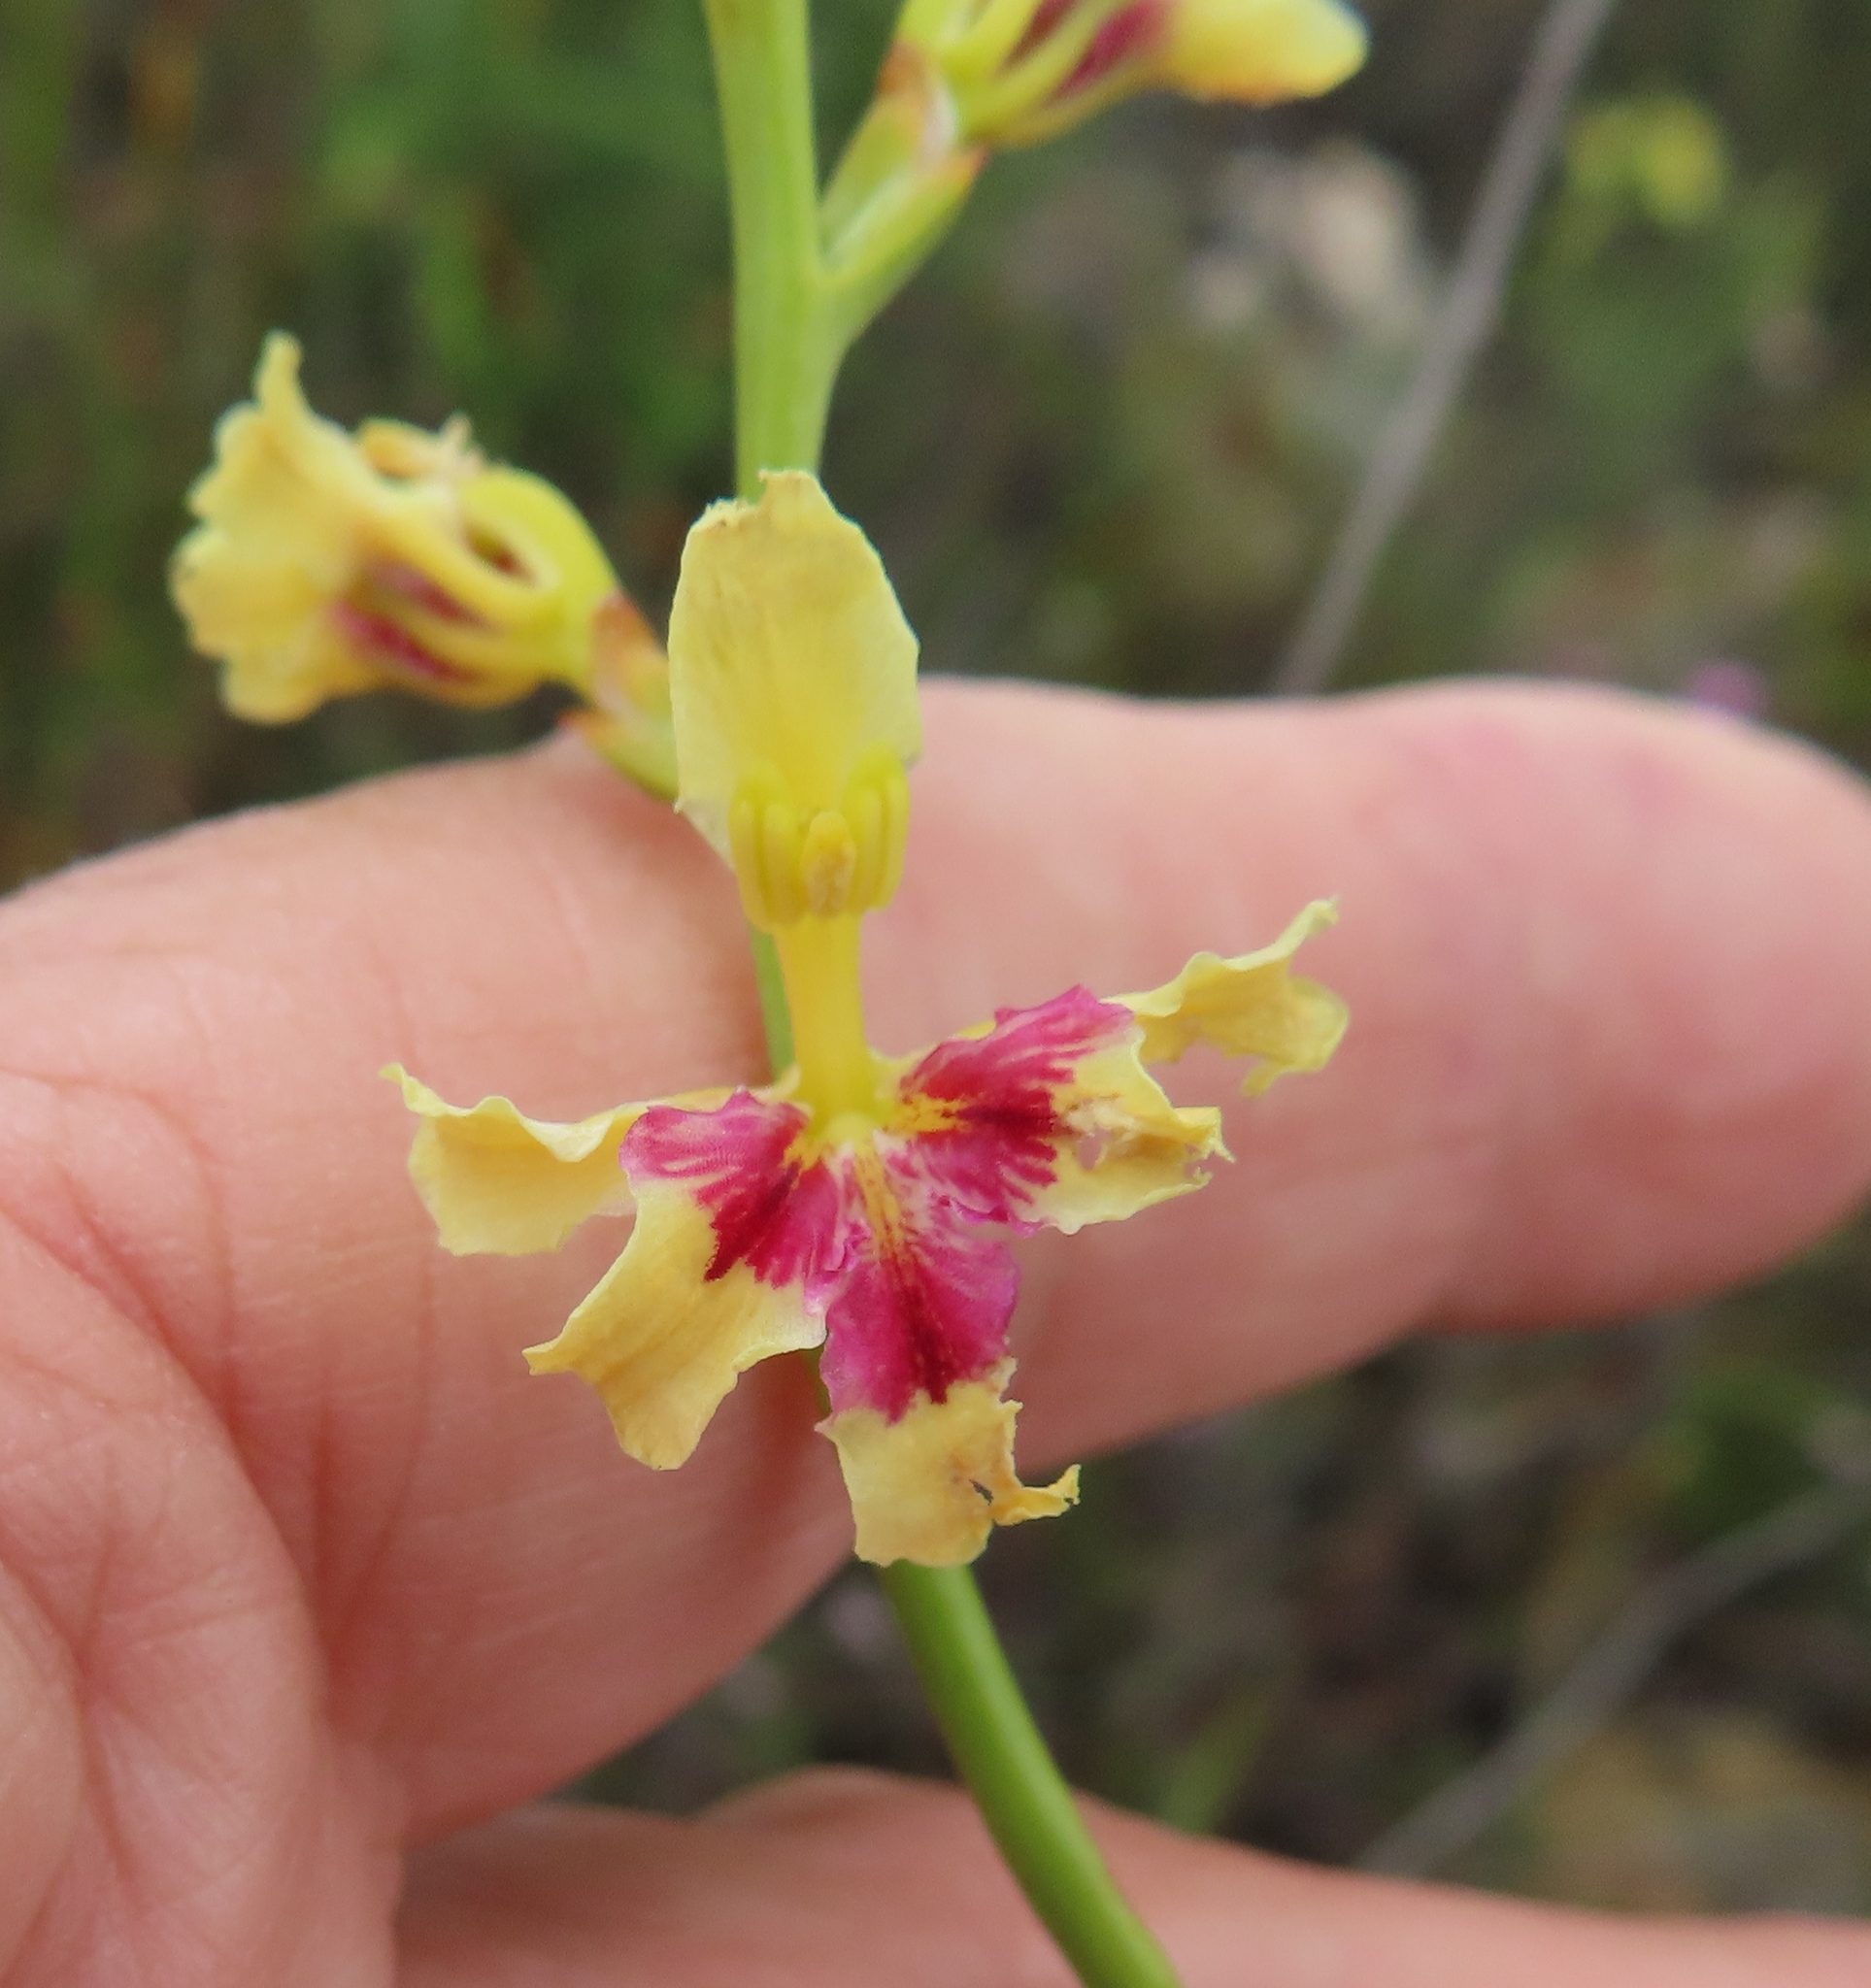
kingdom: Plantae
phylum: Tracheophyta
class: Liliopsida
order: Asparagales
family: Iridaceae
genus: Tritoniopsis
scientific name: Tritoniopsis unguicularis
